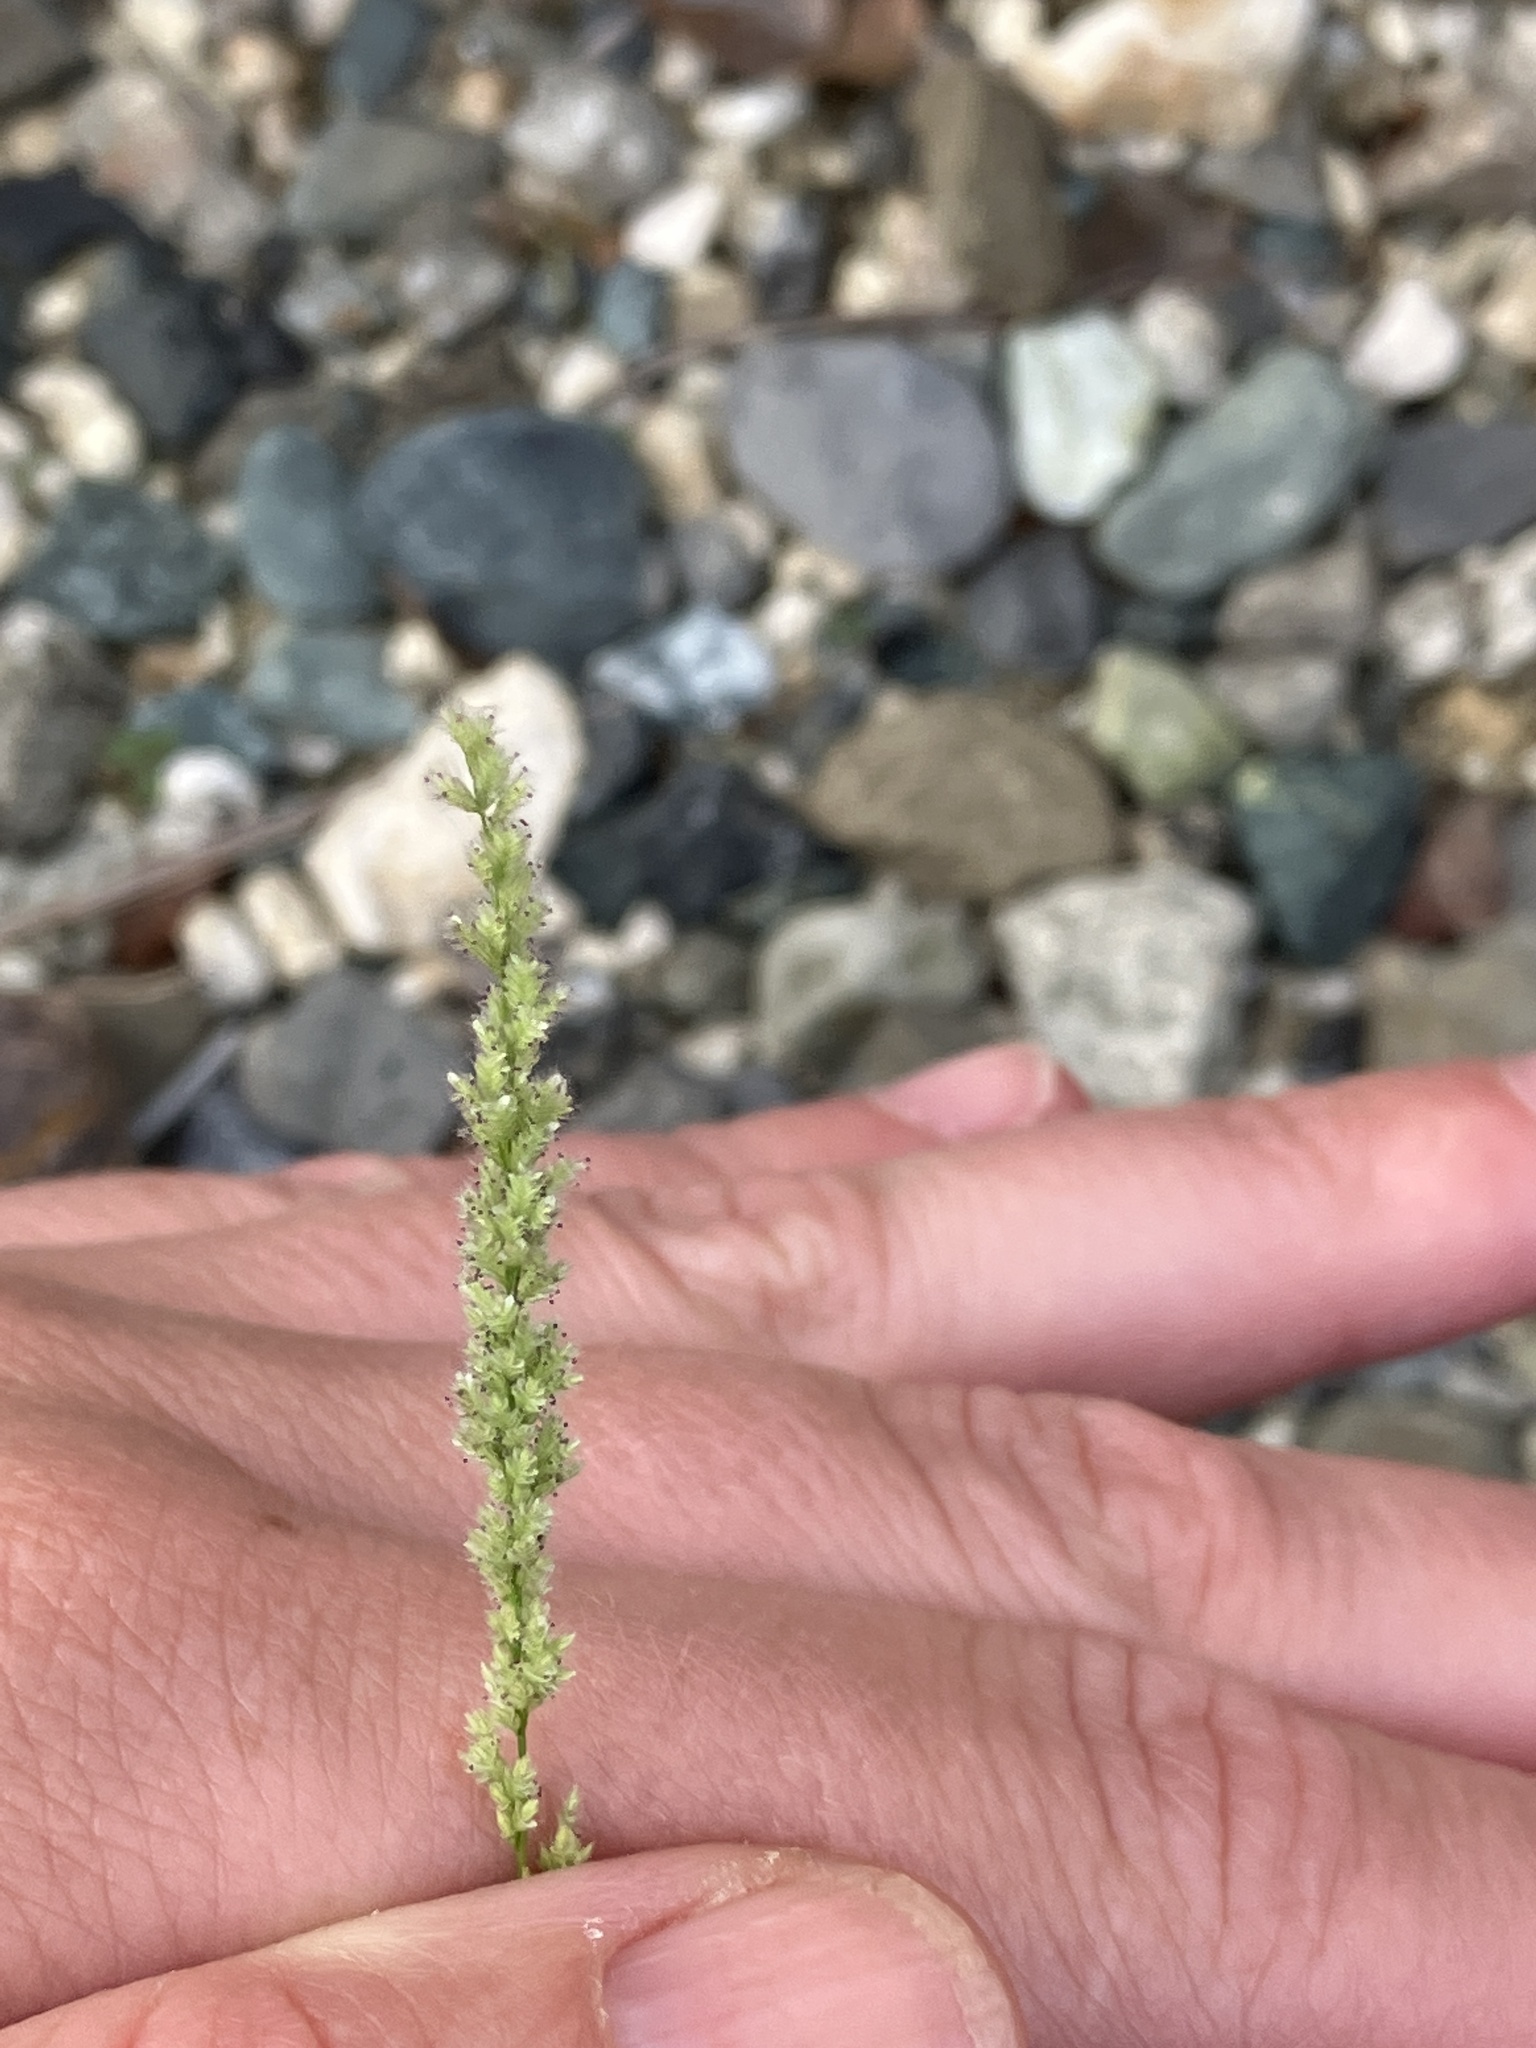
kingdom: Plantae
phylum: Tracheophyta
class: Liliopsida
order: Poales
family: Poaceae
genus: Eragrostis
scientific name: Eragrostis ciliaris
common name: Gophertail lovegrass
